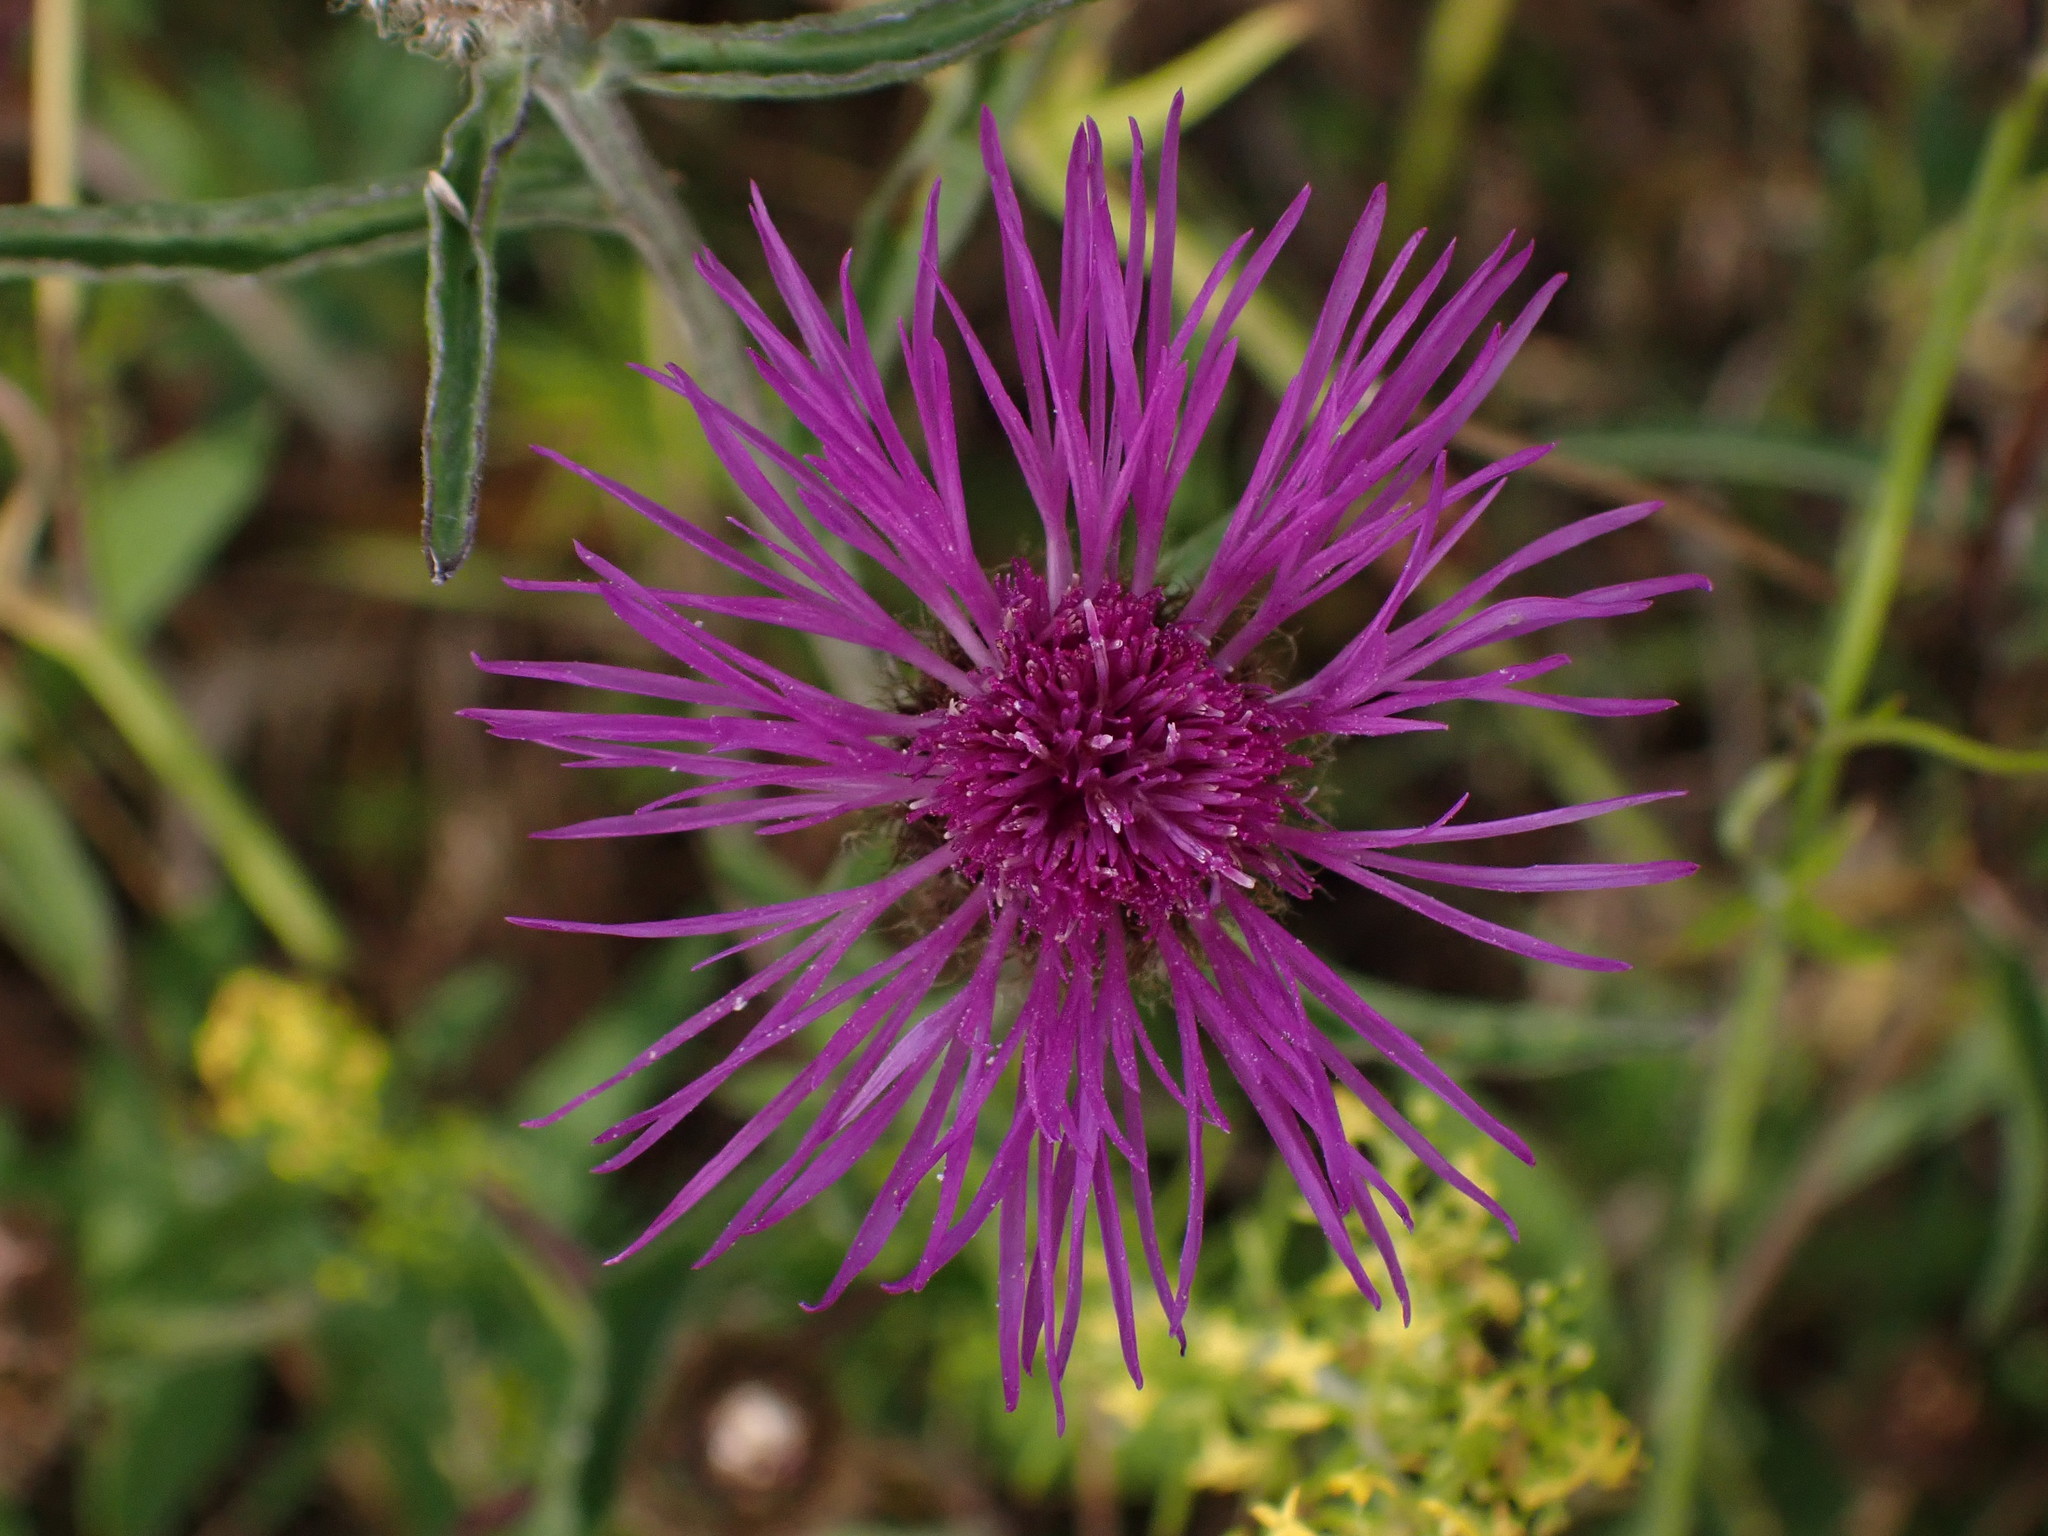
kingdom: Plantae
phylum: Tracheophyta
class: Magnoliopsida
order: Asterales
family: Asteraceae
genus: Centaurea
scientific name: Centaurea nigra
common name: Lesser knapweed
